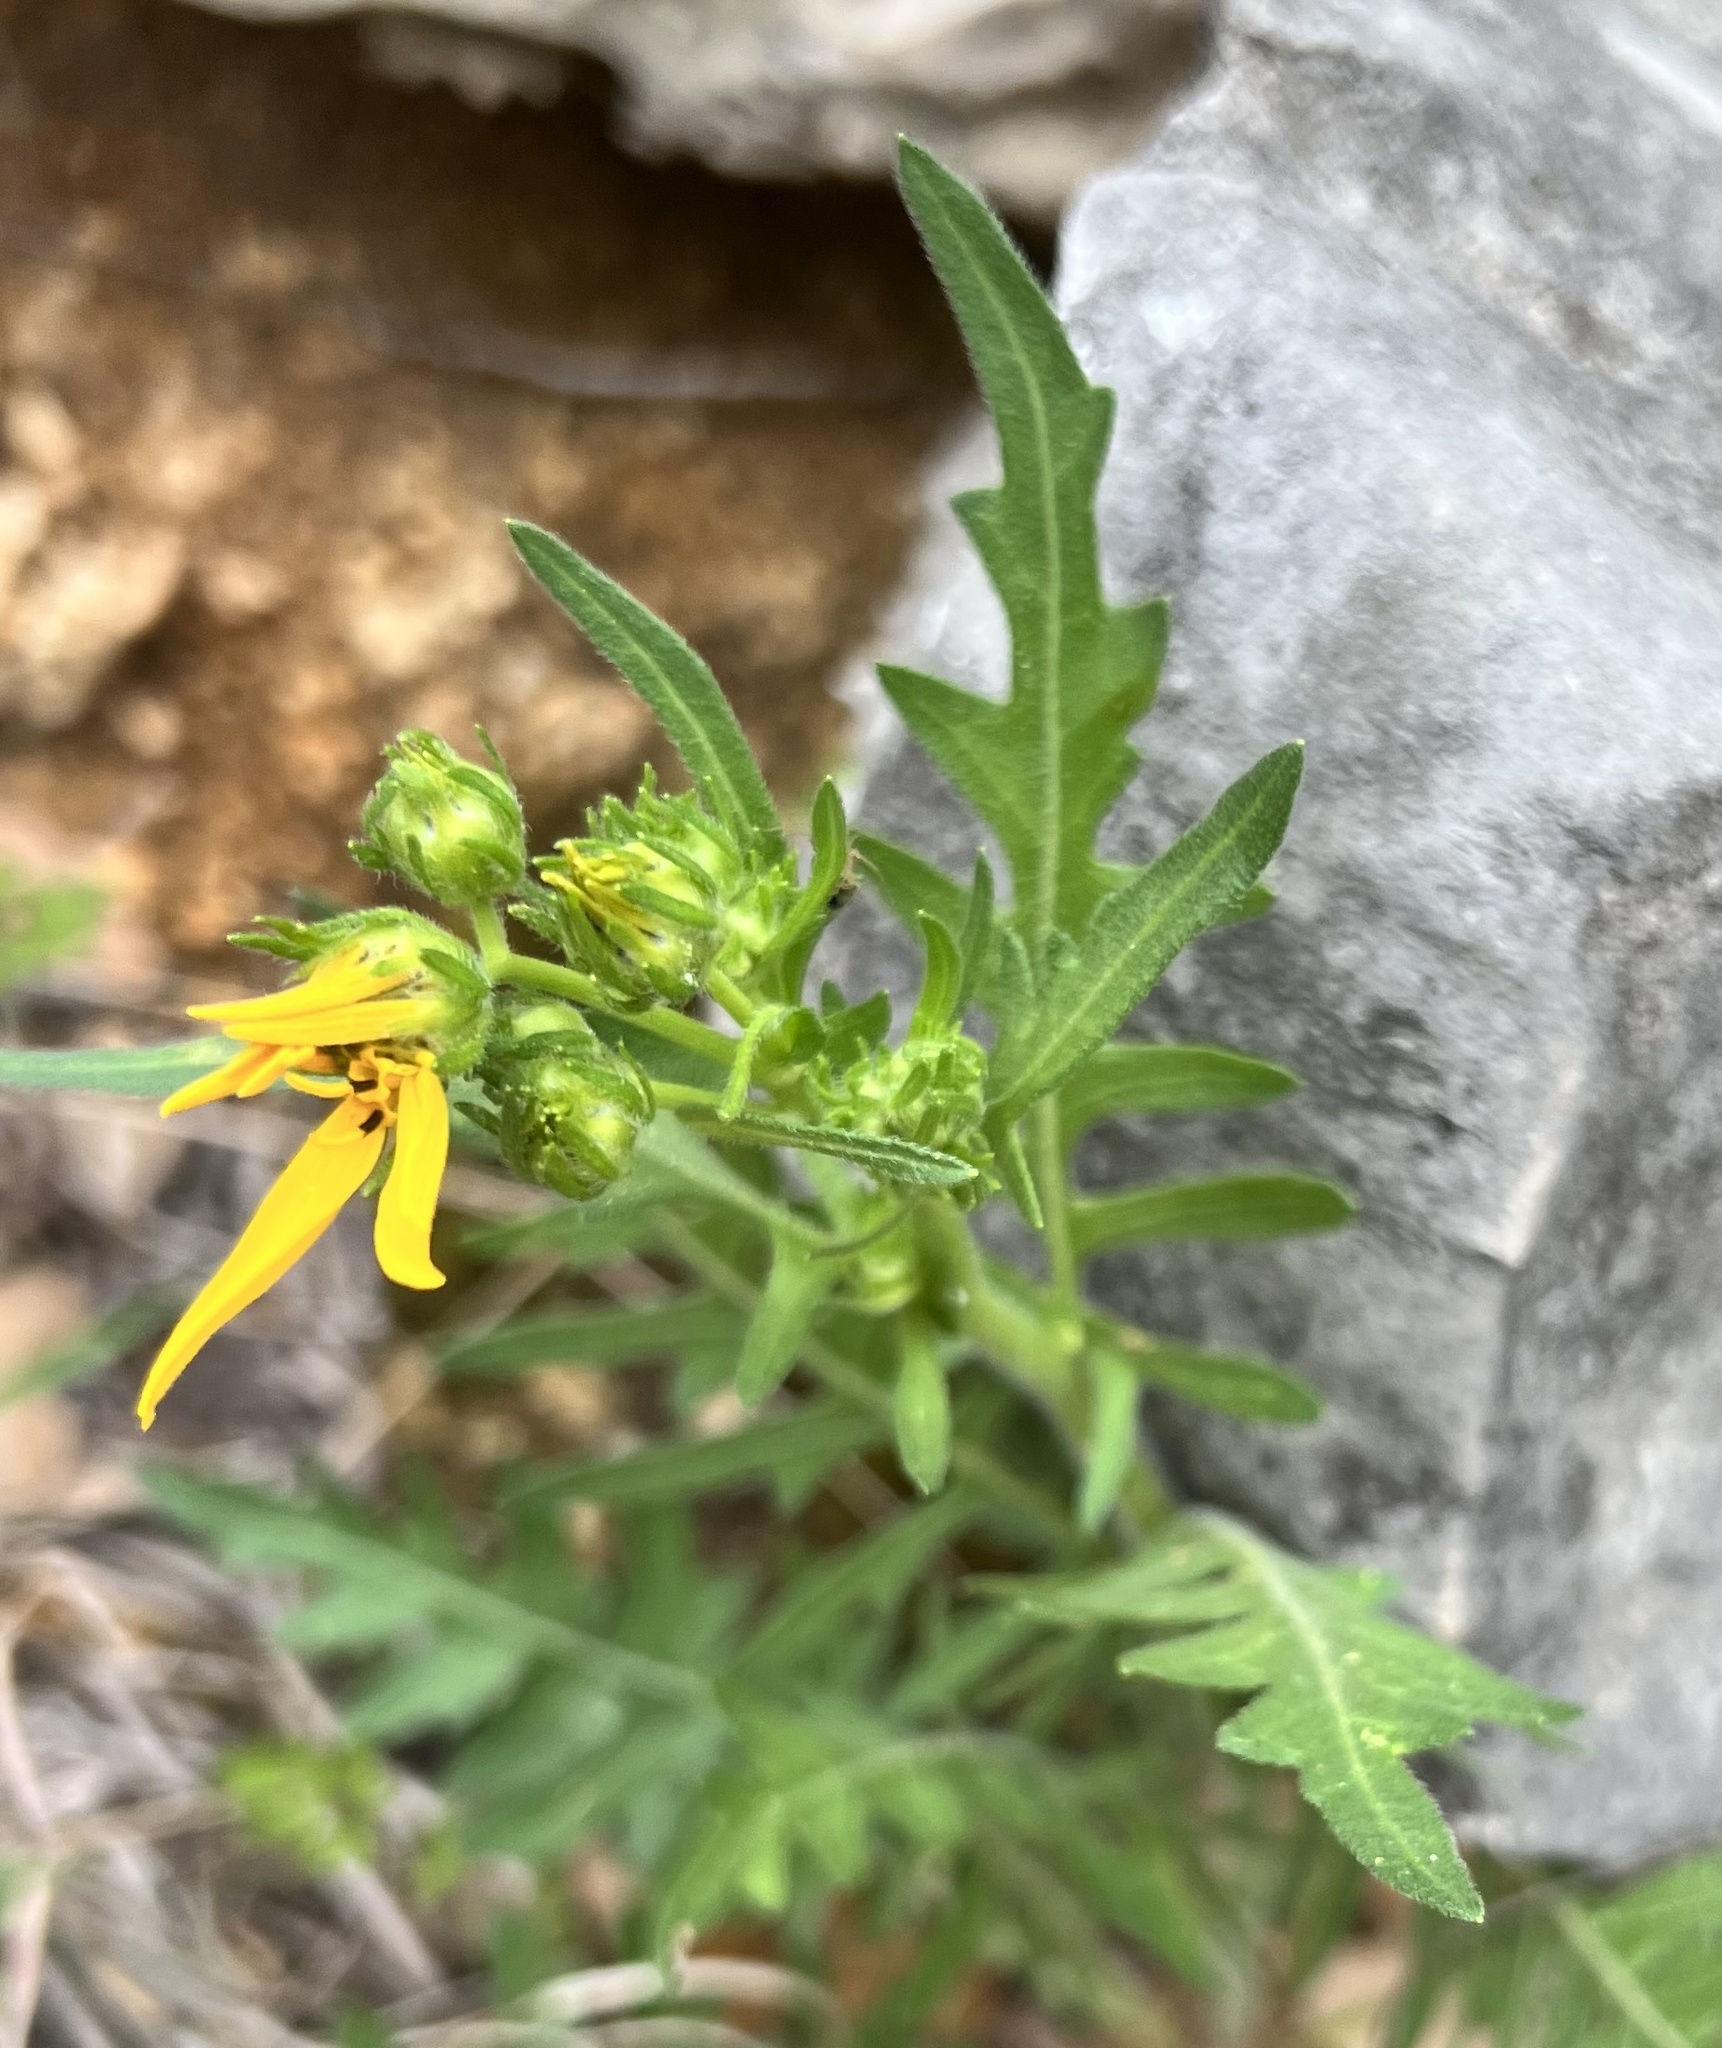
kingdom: Plantae
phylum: Tracheophyta
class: Magnoliopsida
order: Asterales
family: Asteraceae
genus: Engelmannia
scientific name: Engelmannia peristenia
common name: Engelmann's daisy
